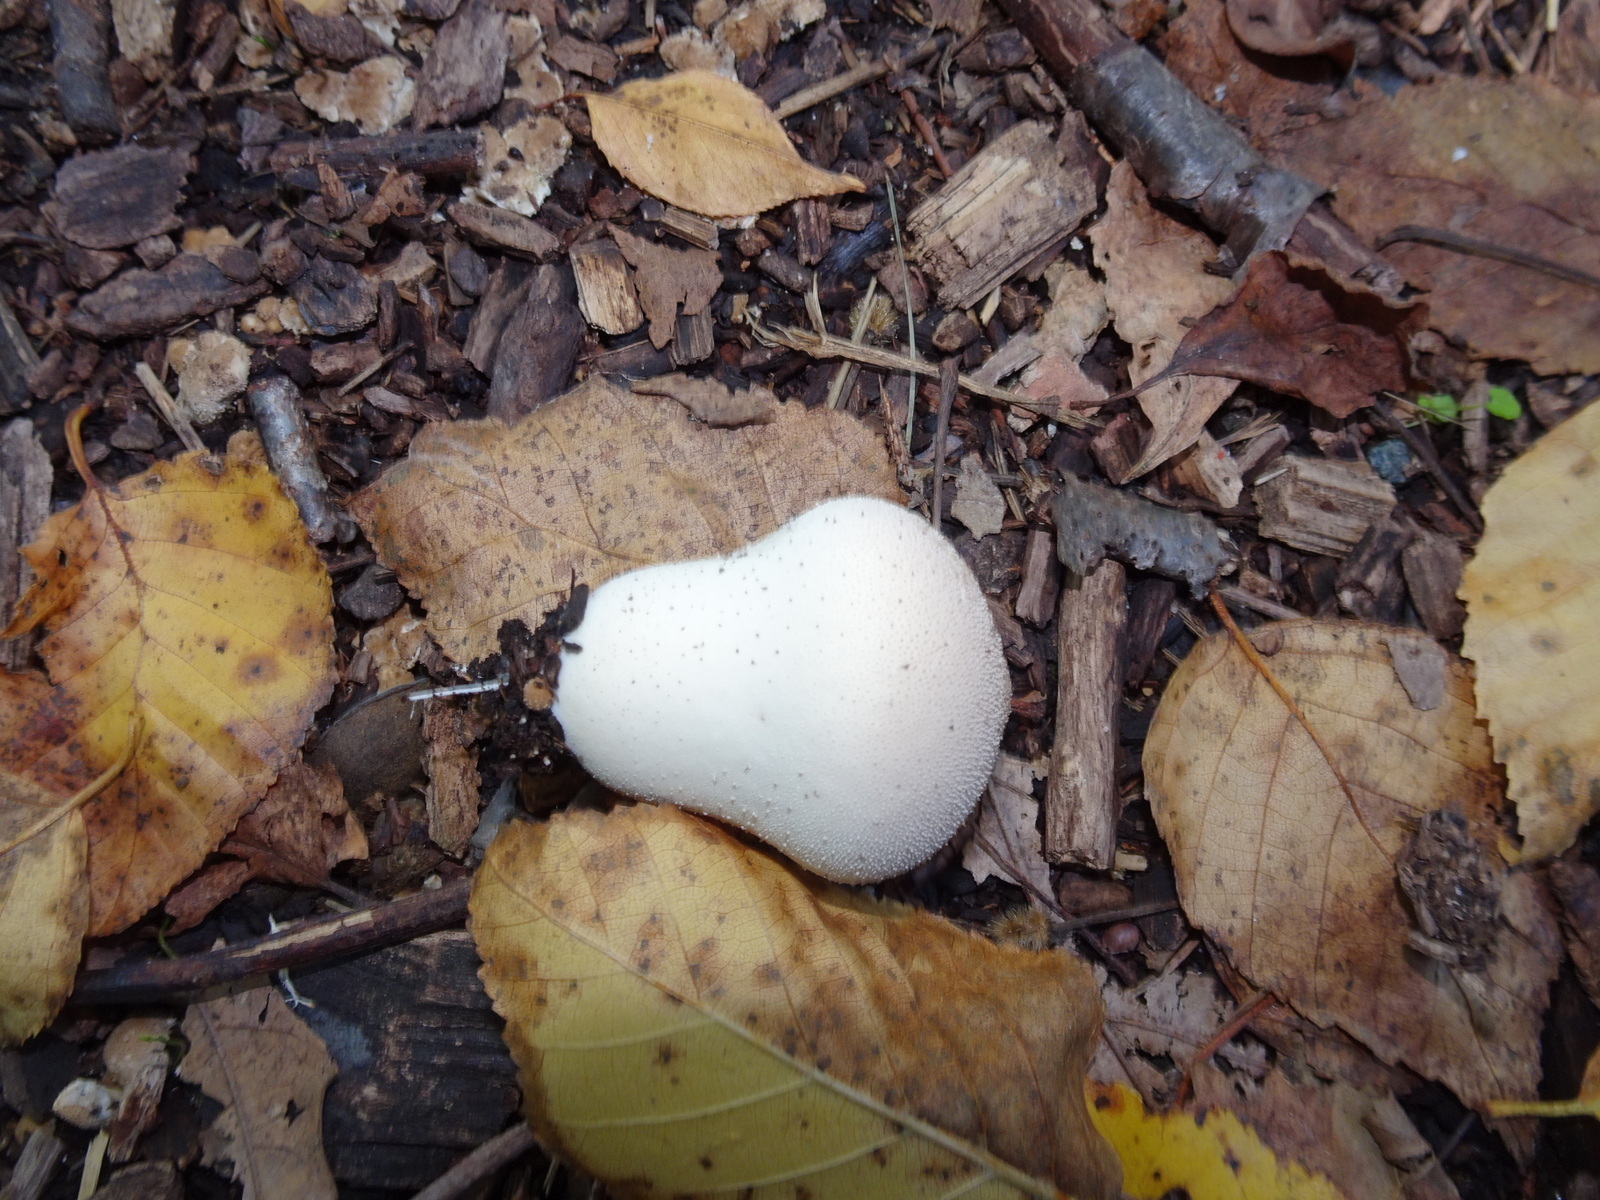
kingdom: Fungi
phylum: Basidiomycota
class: Agaricomycetes
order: Agaricales
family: Lycoperdaceae
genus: Lycoperdon
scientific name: Lycoperdon perlatum
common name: Common puffball
